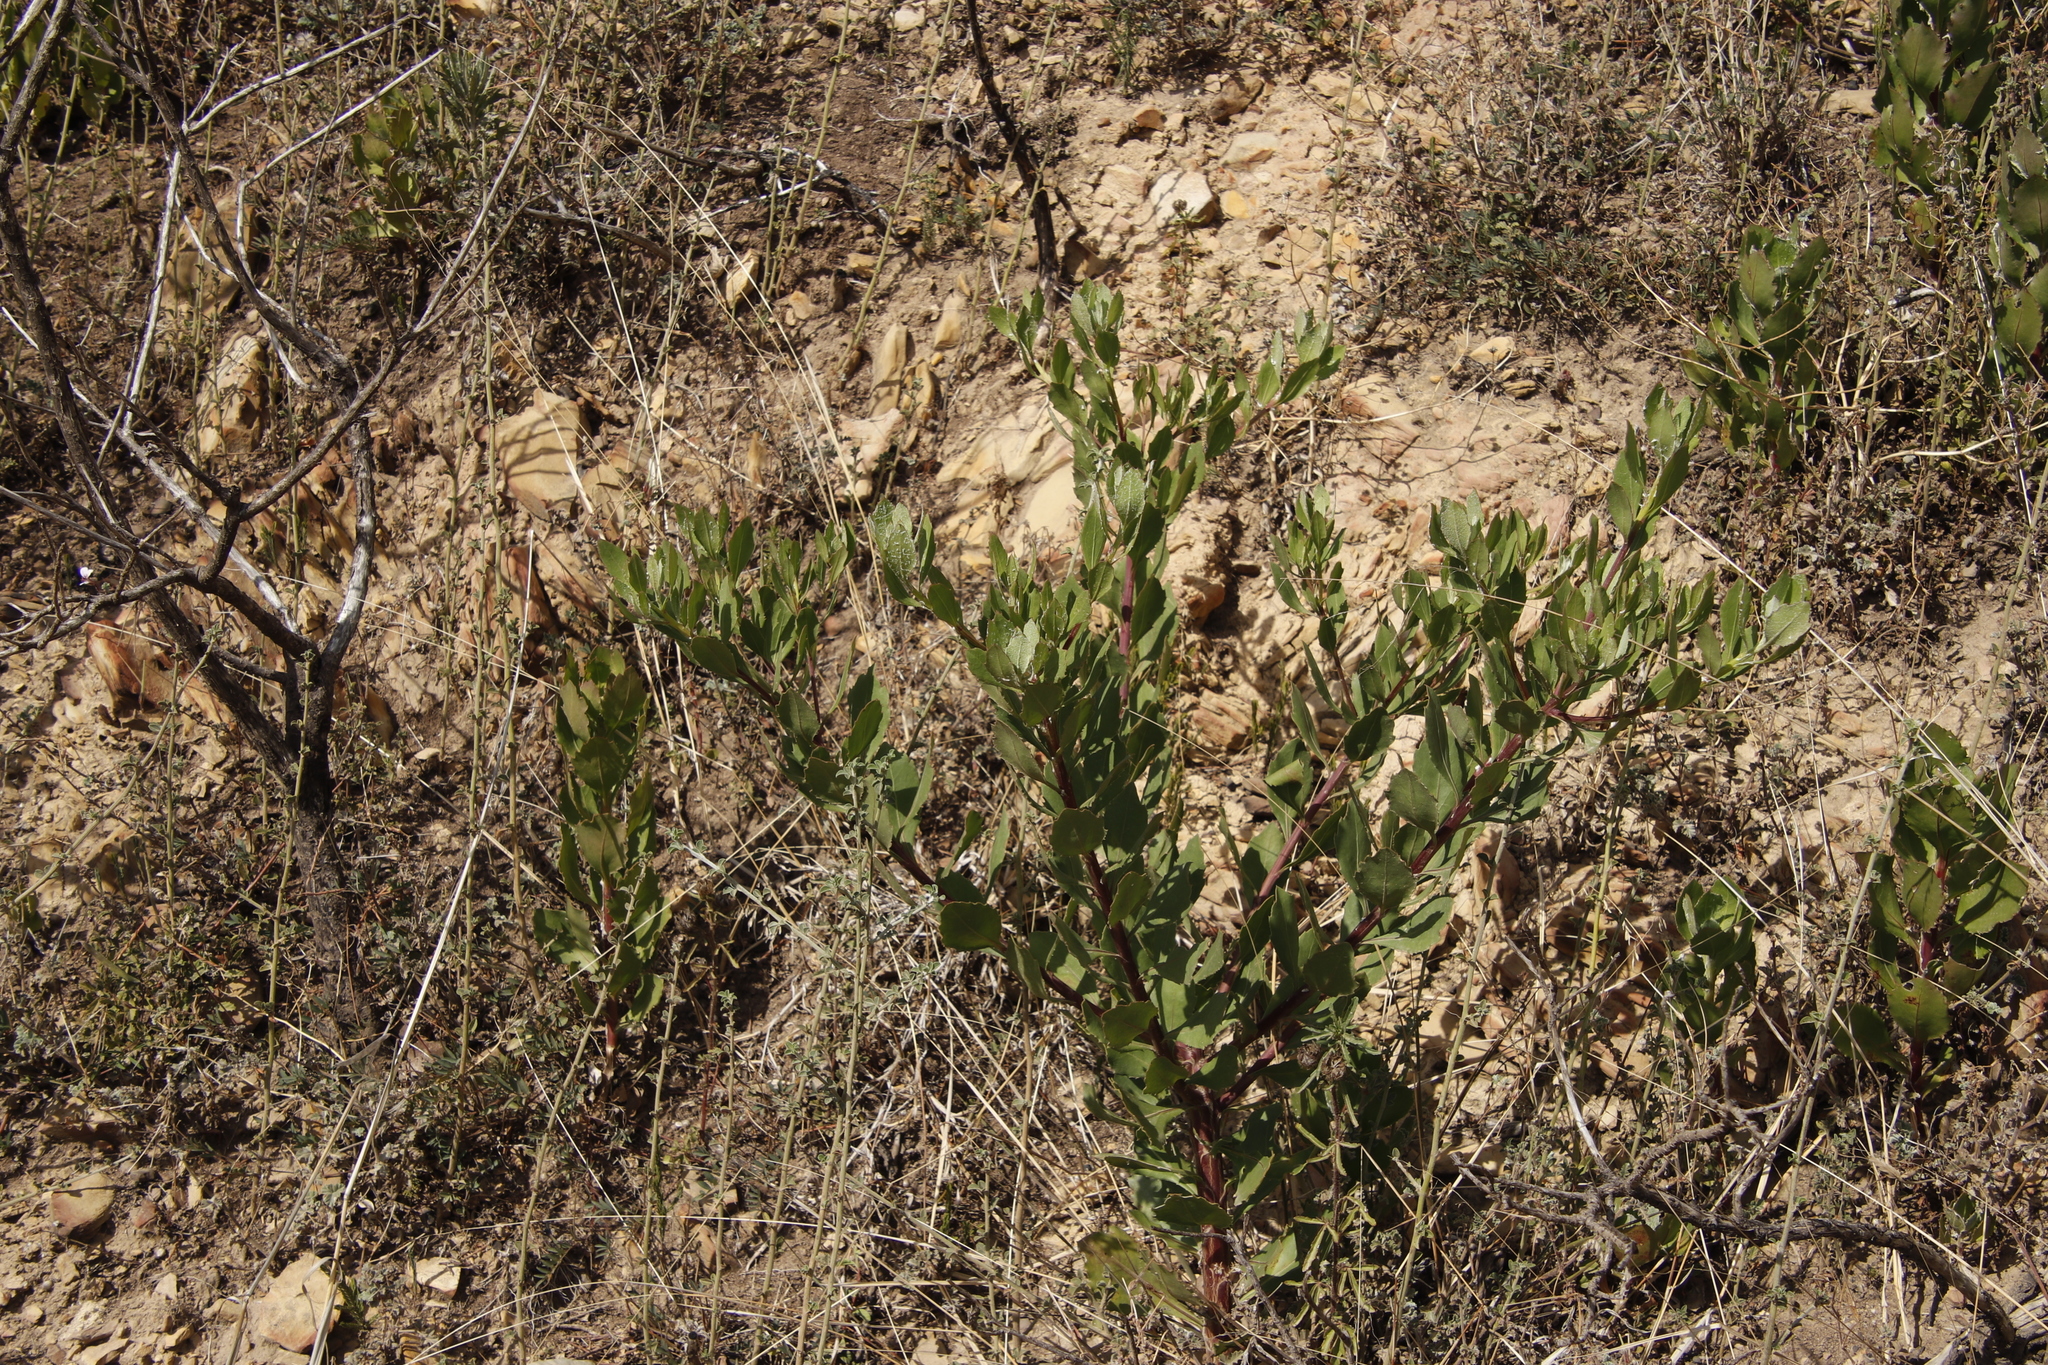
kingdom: Plantae
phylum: Tracheophyta
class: Magnoliopsida
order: Asterales
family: Asteraceae
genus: Osteospermum
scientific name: Osteospermum moniliferum
